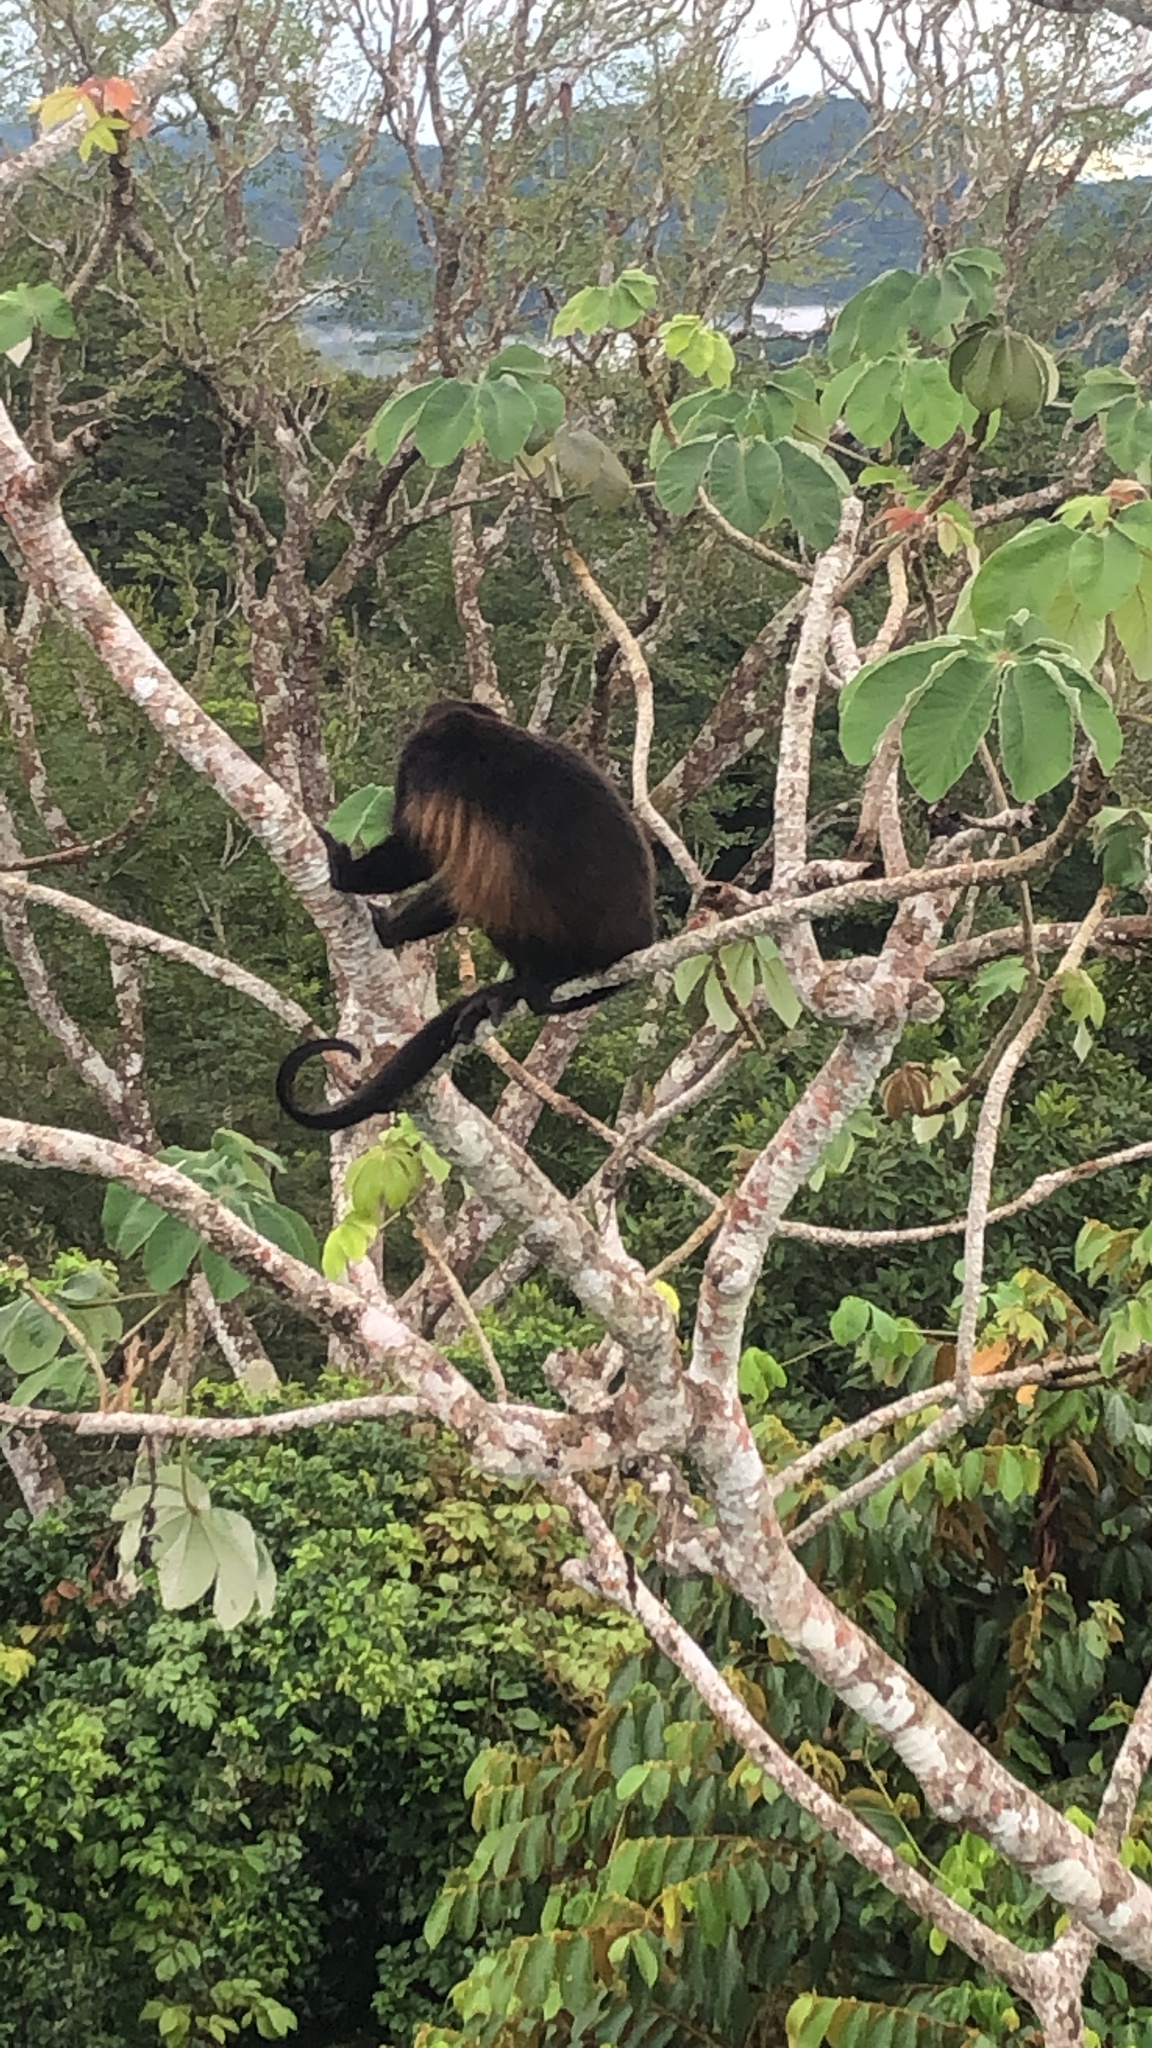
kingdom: Animalia
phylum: Chordata
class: Mammalia
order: Primates
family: Atelidae
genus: Alouatta
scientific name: Alouatta palliata
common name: Mantled howler
